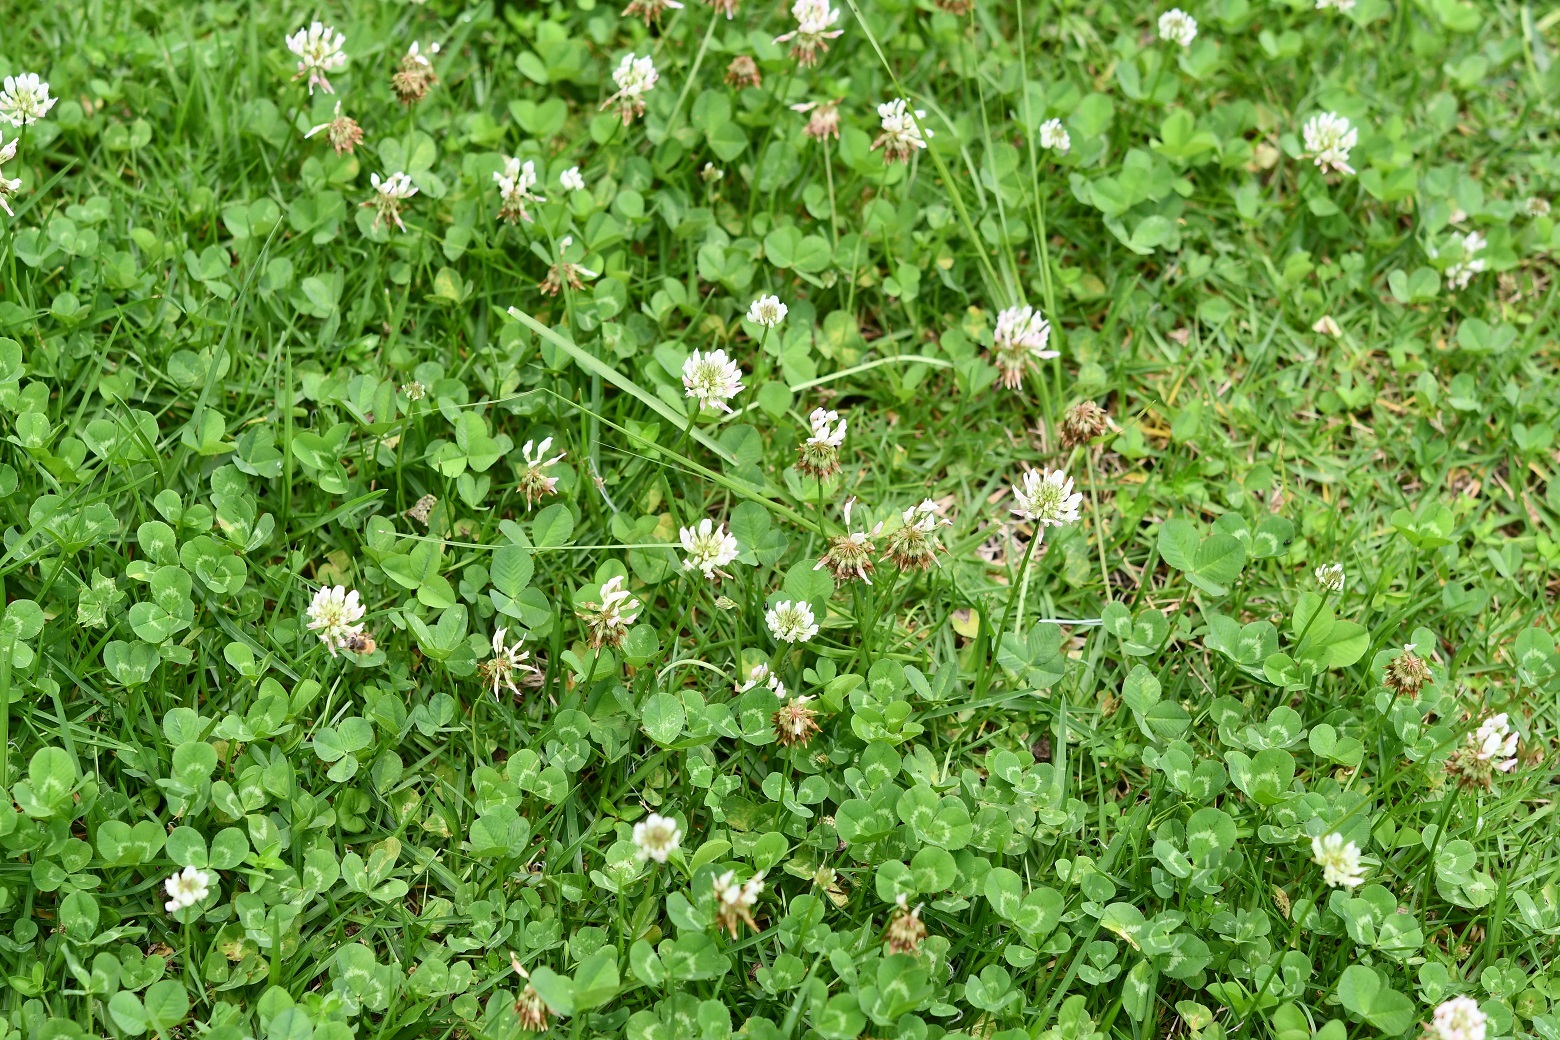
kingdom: Plantae
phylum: Tracheophyta
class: Magnoliopsida
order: Fabales
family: Fabaceae
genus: Trifolium
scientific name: Trifolium repens
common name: White clover
